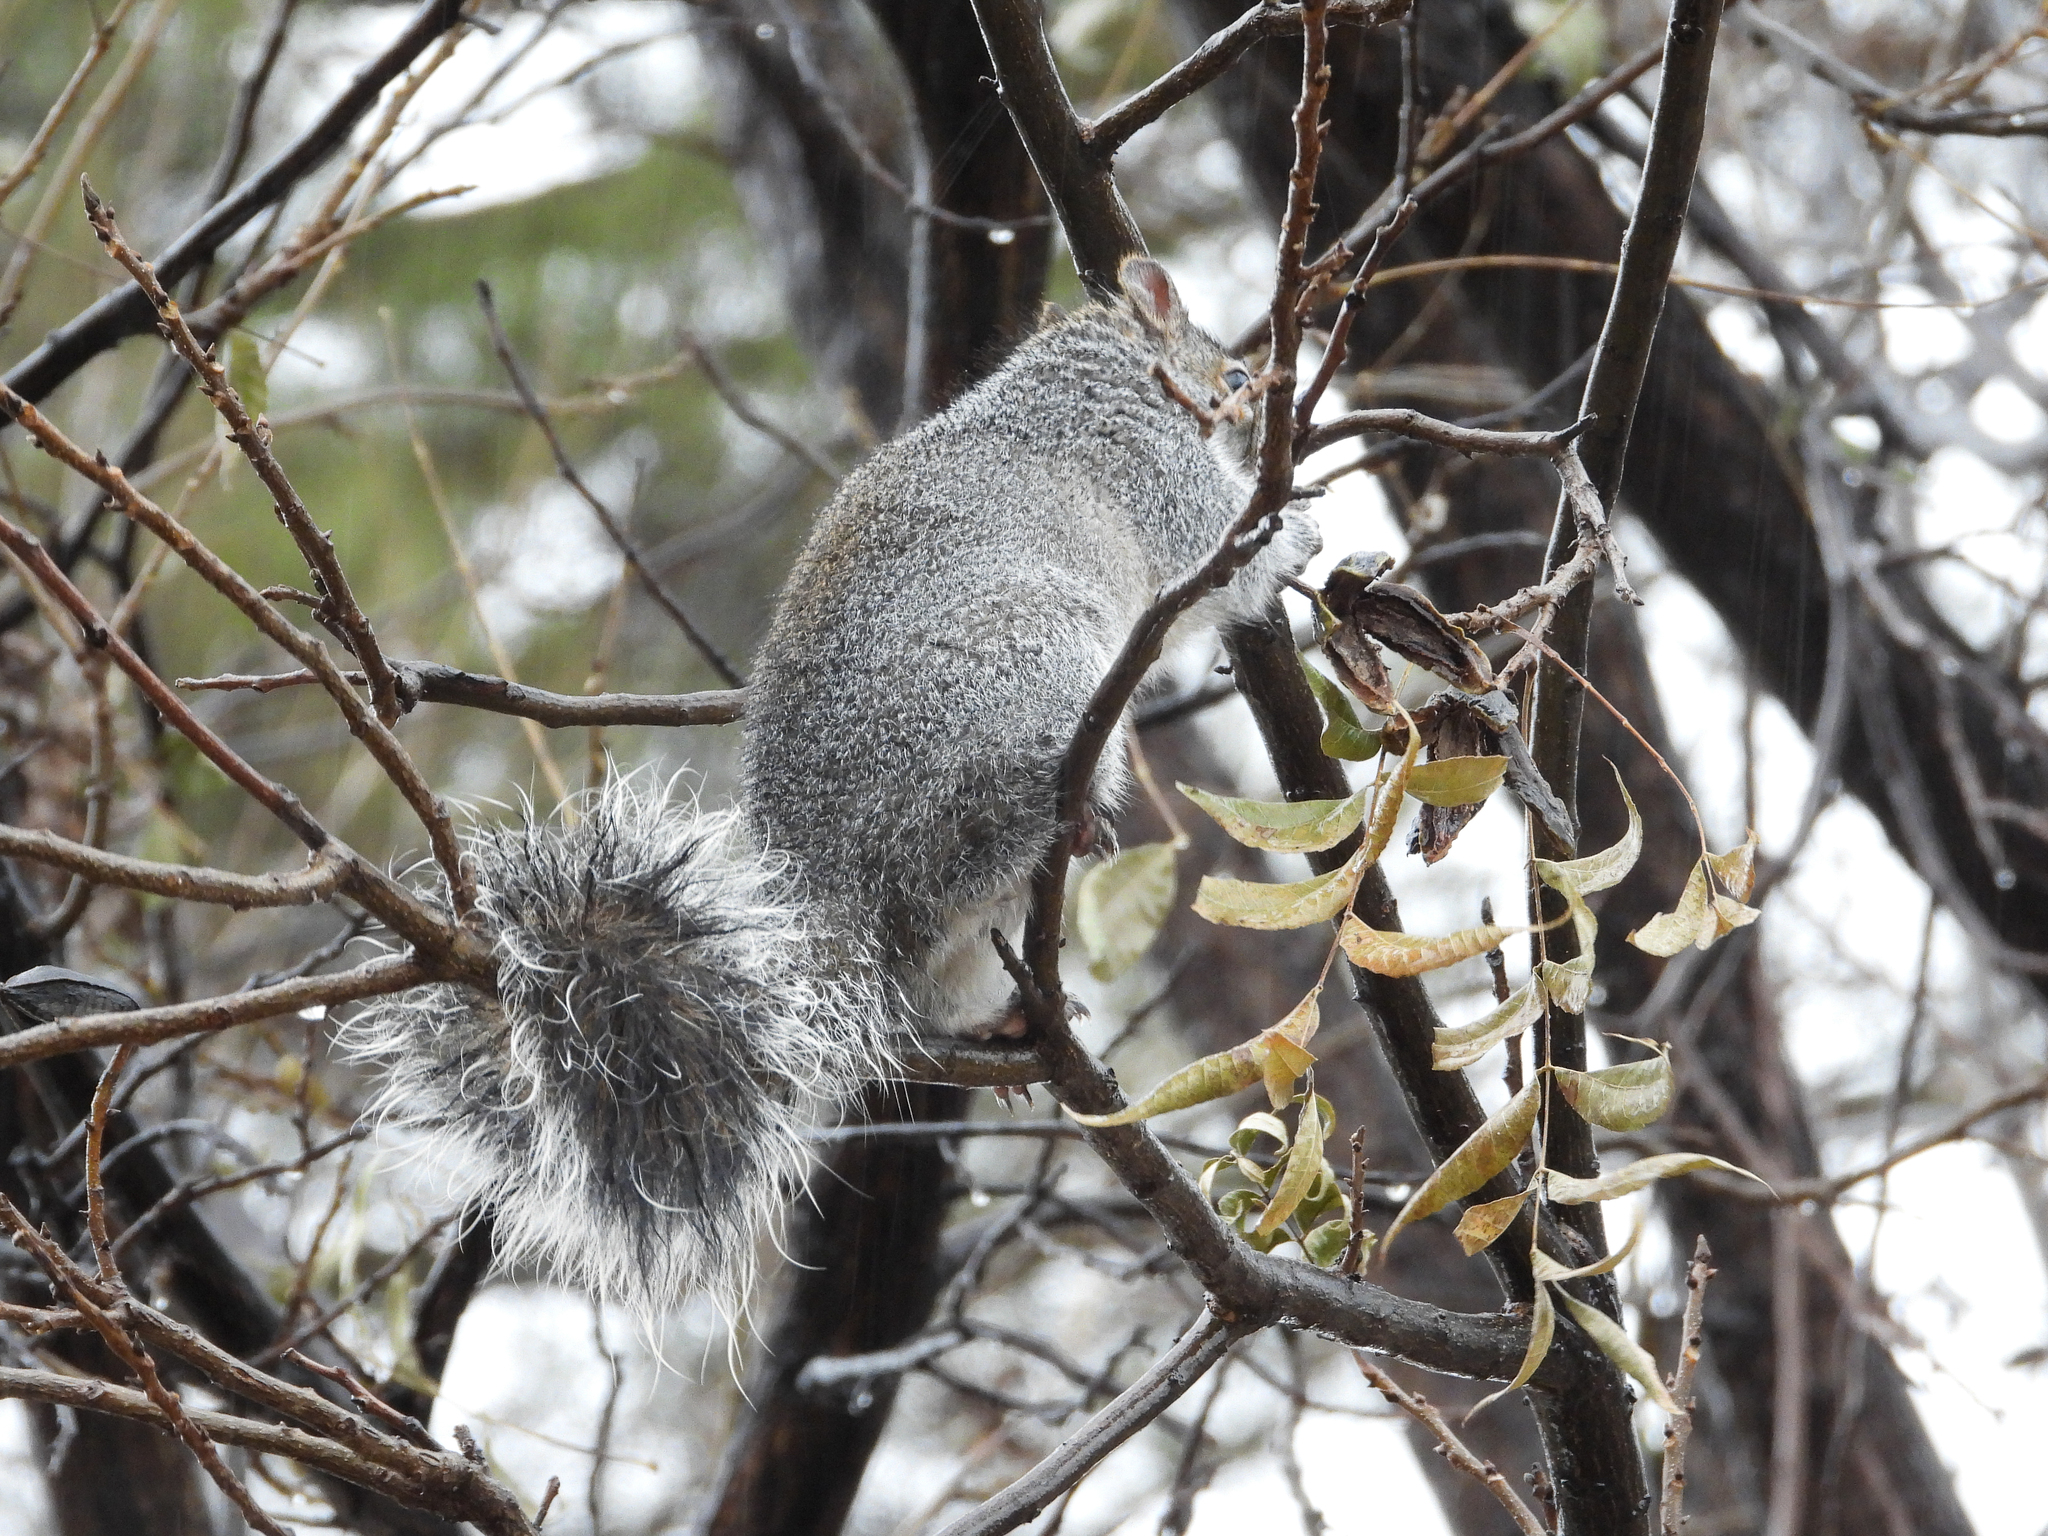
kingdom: Animalia
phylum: Chordata
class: Mammalia
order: Rodentia
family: Sciuridae
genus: Sciurus
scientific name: Sciurus arizonensis
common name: Arizona gray squirrel
